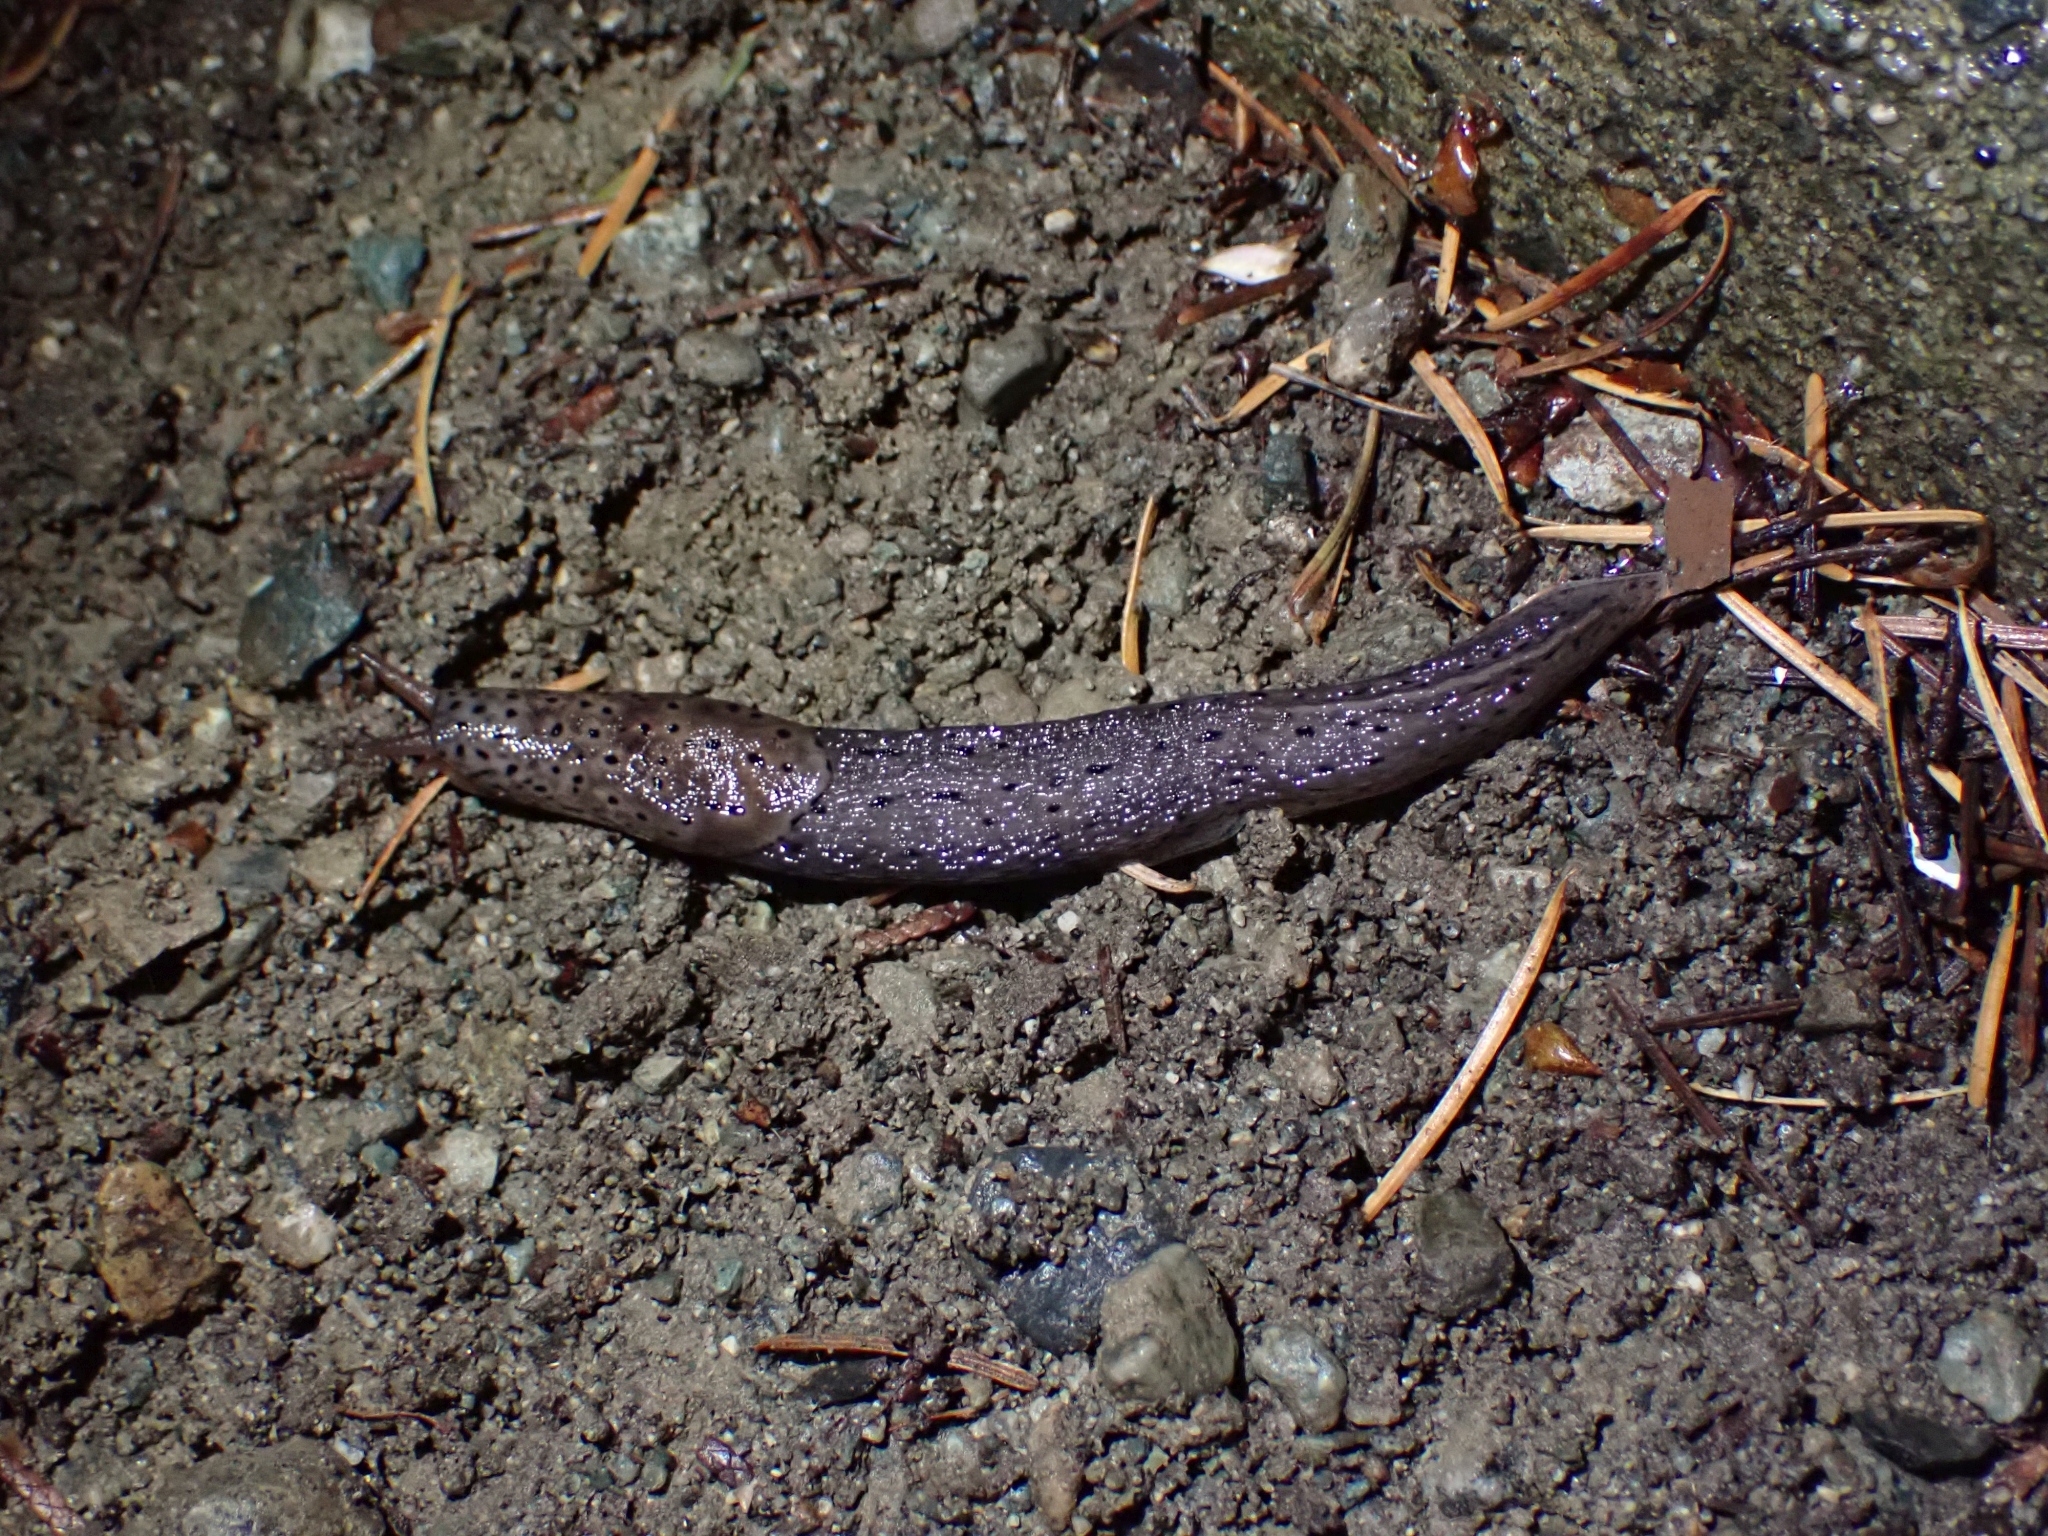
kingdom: Animalia
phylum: Mollusca
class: Gastropoda
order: Stylommatophora
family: Limacidae
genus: Limax
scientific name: Limax maximus
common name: Great grey slug
